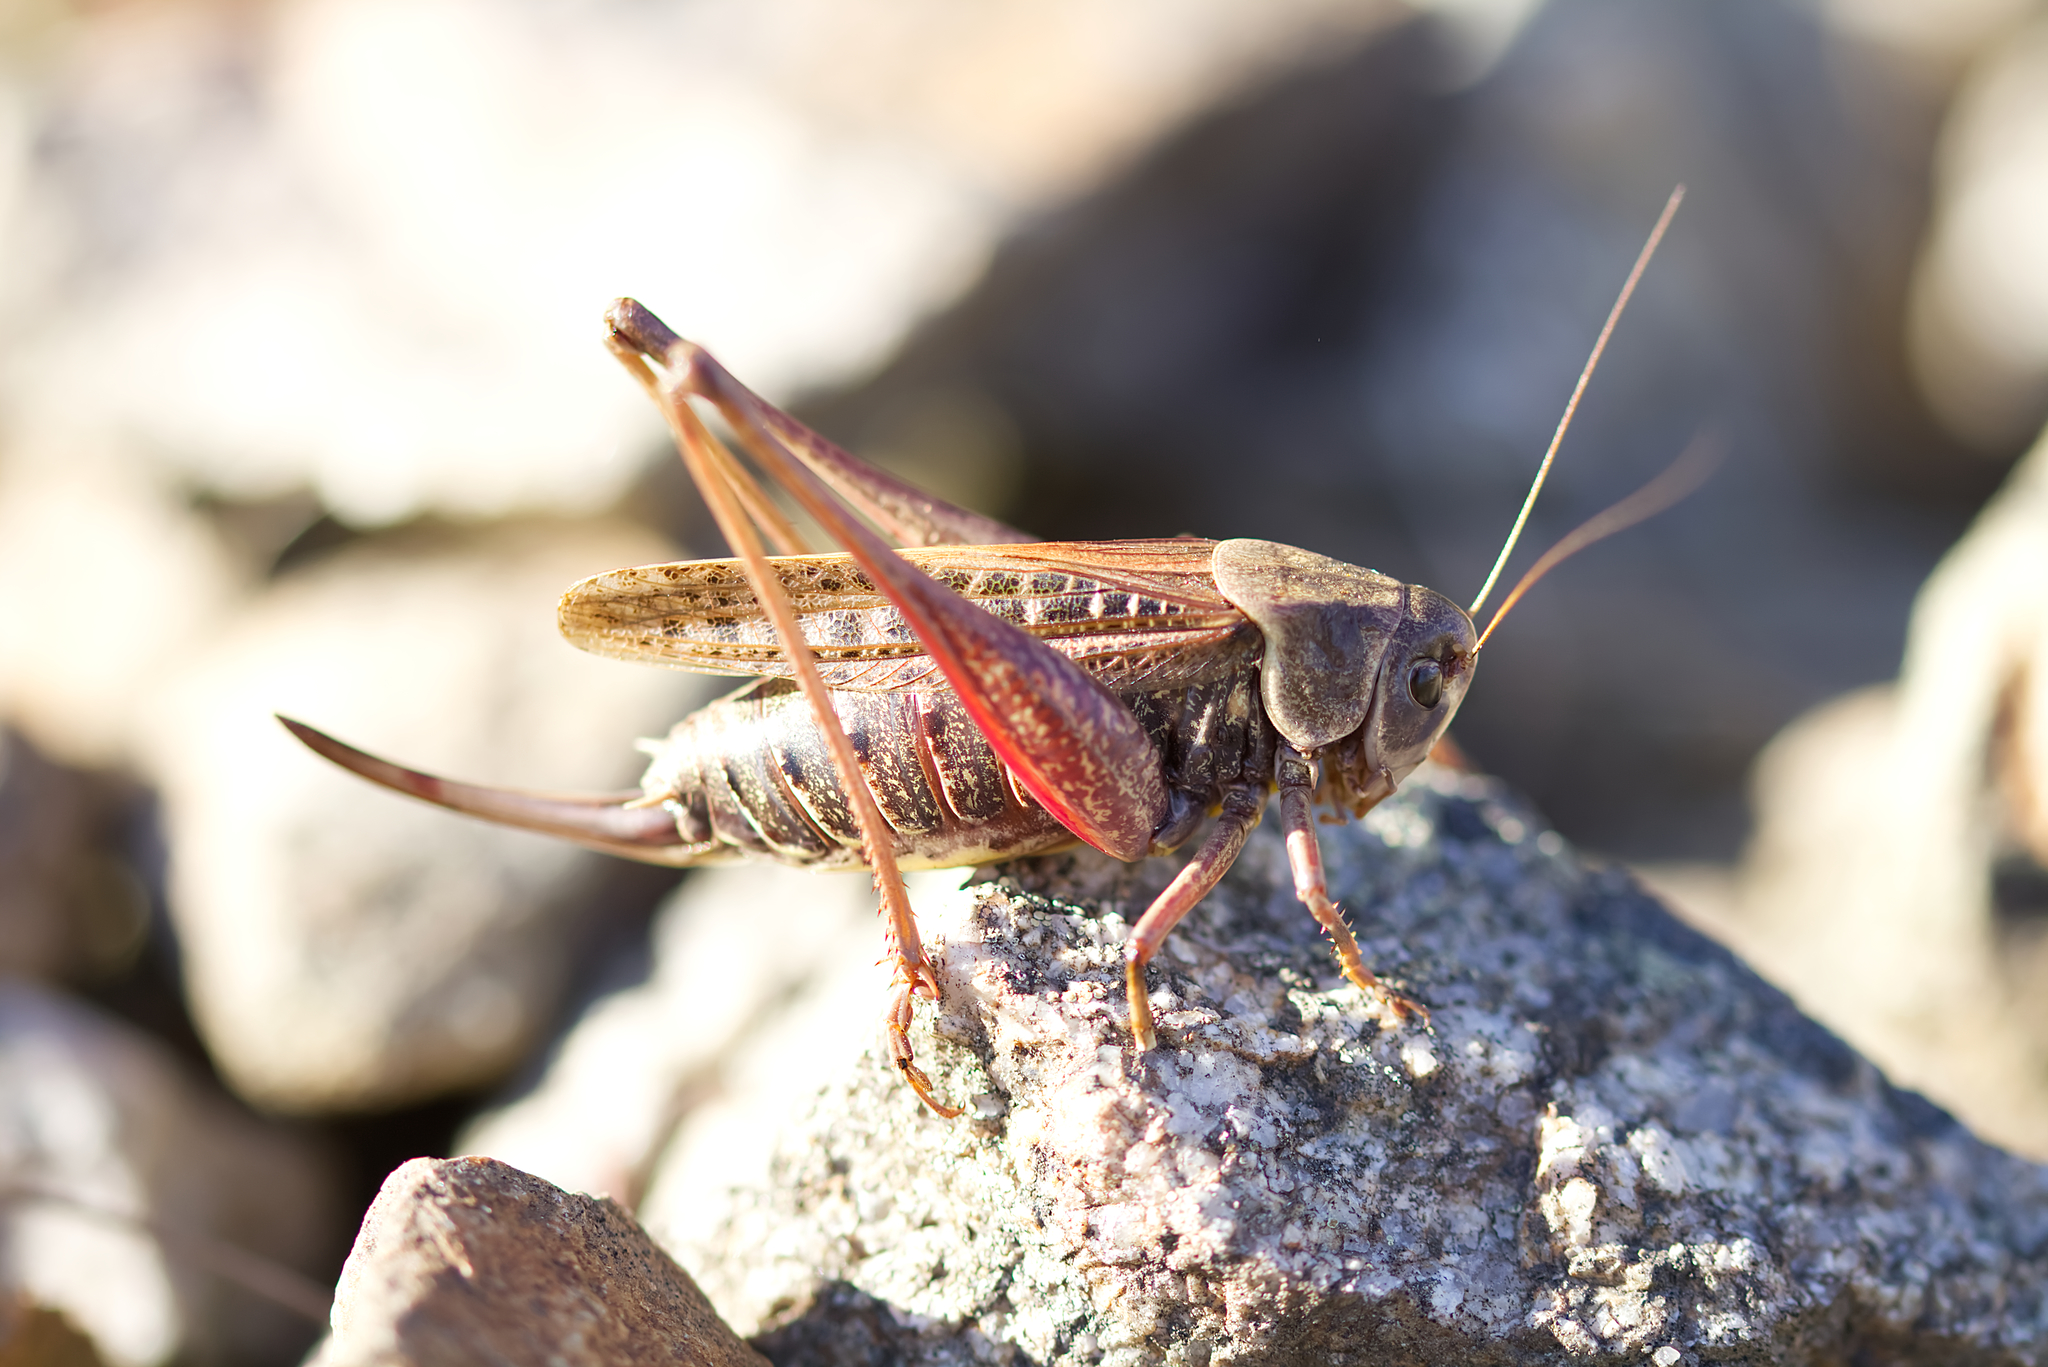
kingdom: Animalia
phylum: Arthropoda
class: Insecta
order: Orthoptera
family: Tettigoniidae
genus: Decticus
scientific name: Decticus verrucivorus
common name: Wart-biter
